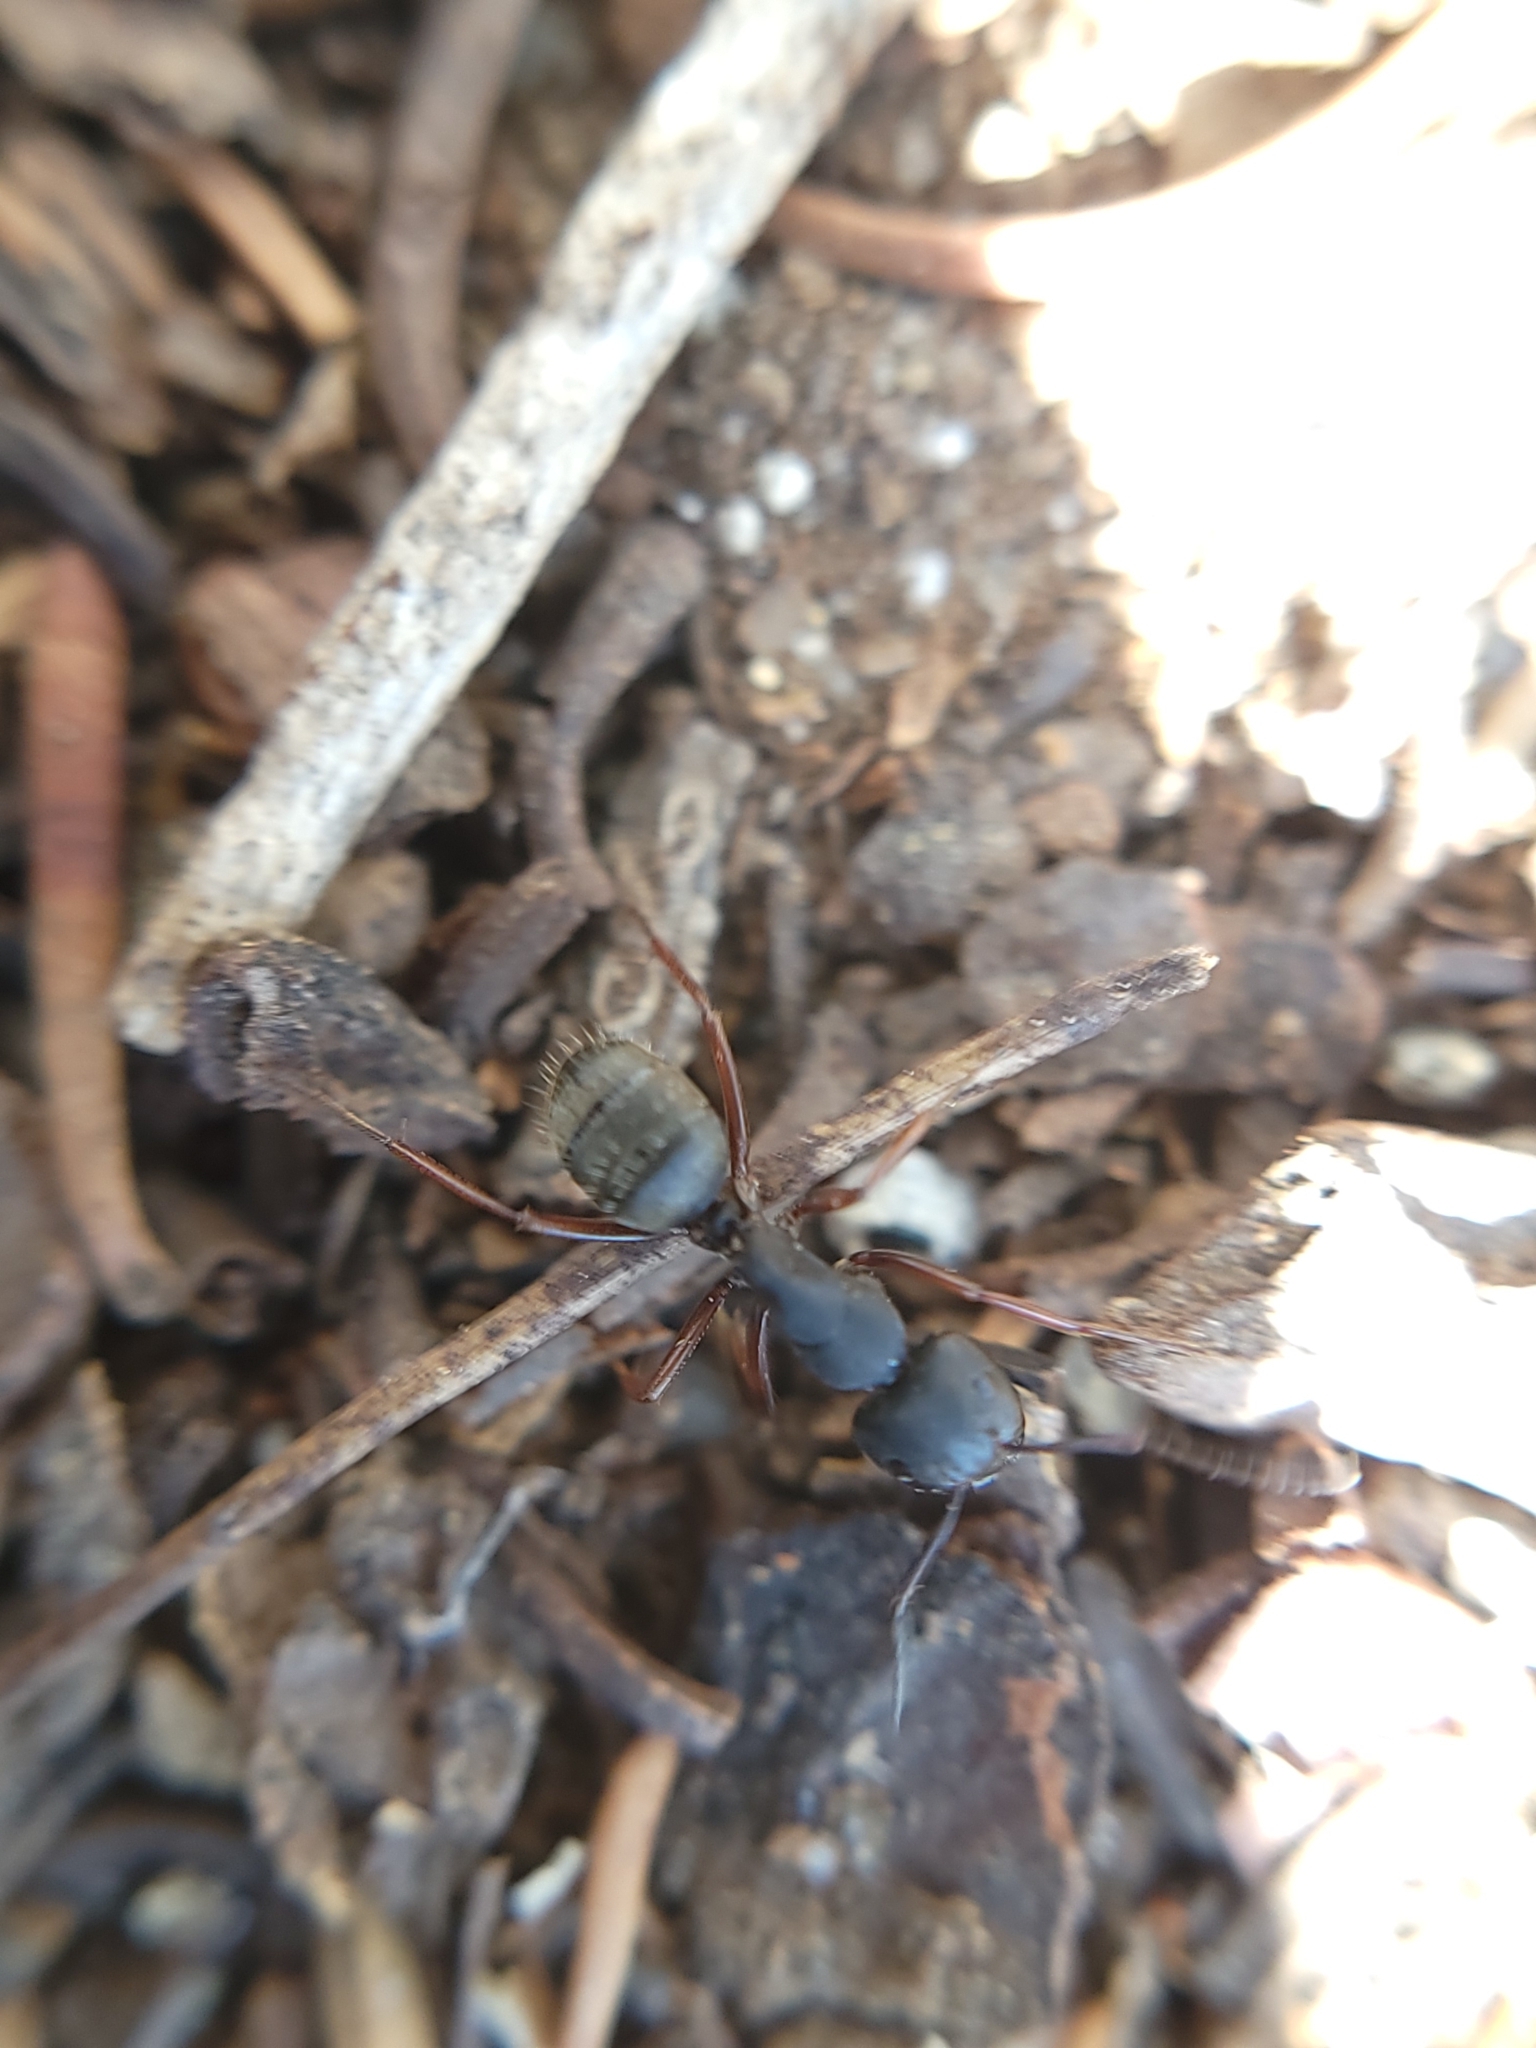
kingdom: Animalia
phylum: Arthropoda
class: Insecta
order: Hymenoptera
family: Formicidae
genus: Camponotus
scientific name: Camponotus modoc
